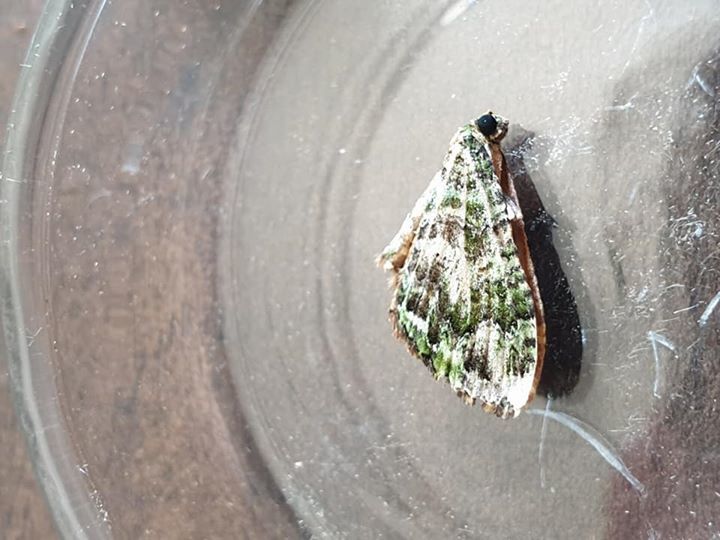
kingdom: Animalia
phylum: Arthropoda
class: Insecta
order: Lepidoptera
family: Geometridae
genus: Austrocidaria
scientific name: Austrocidaria similata
